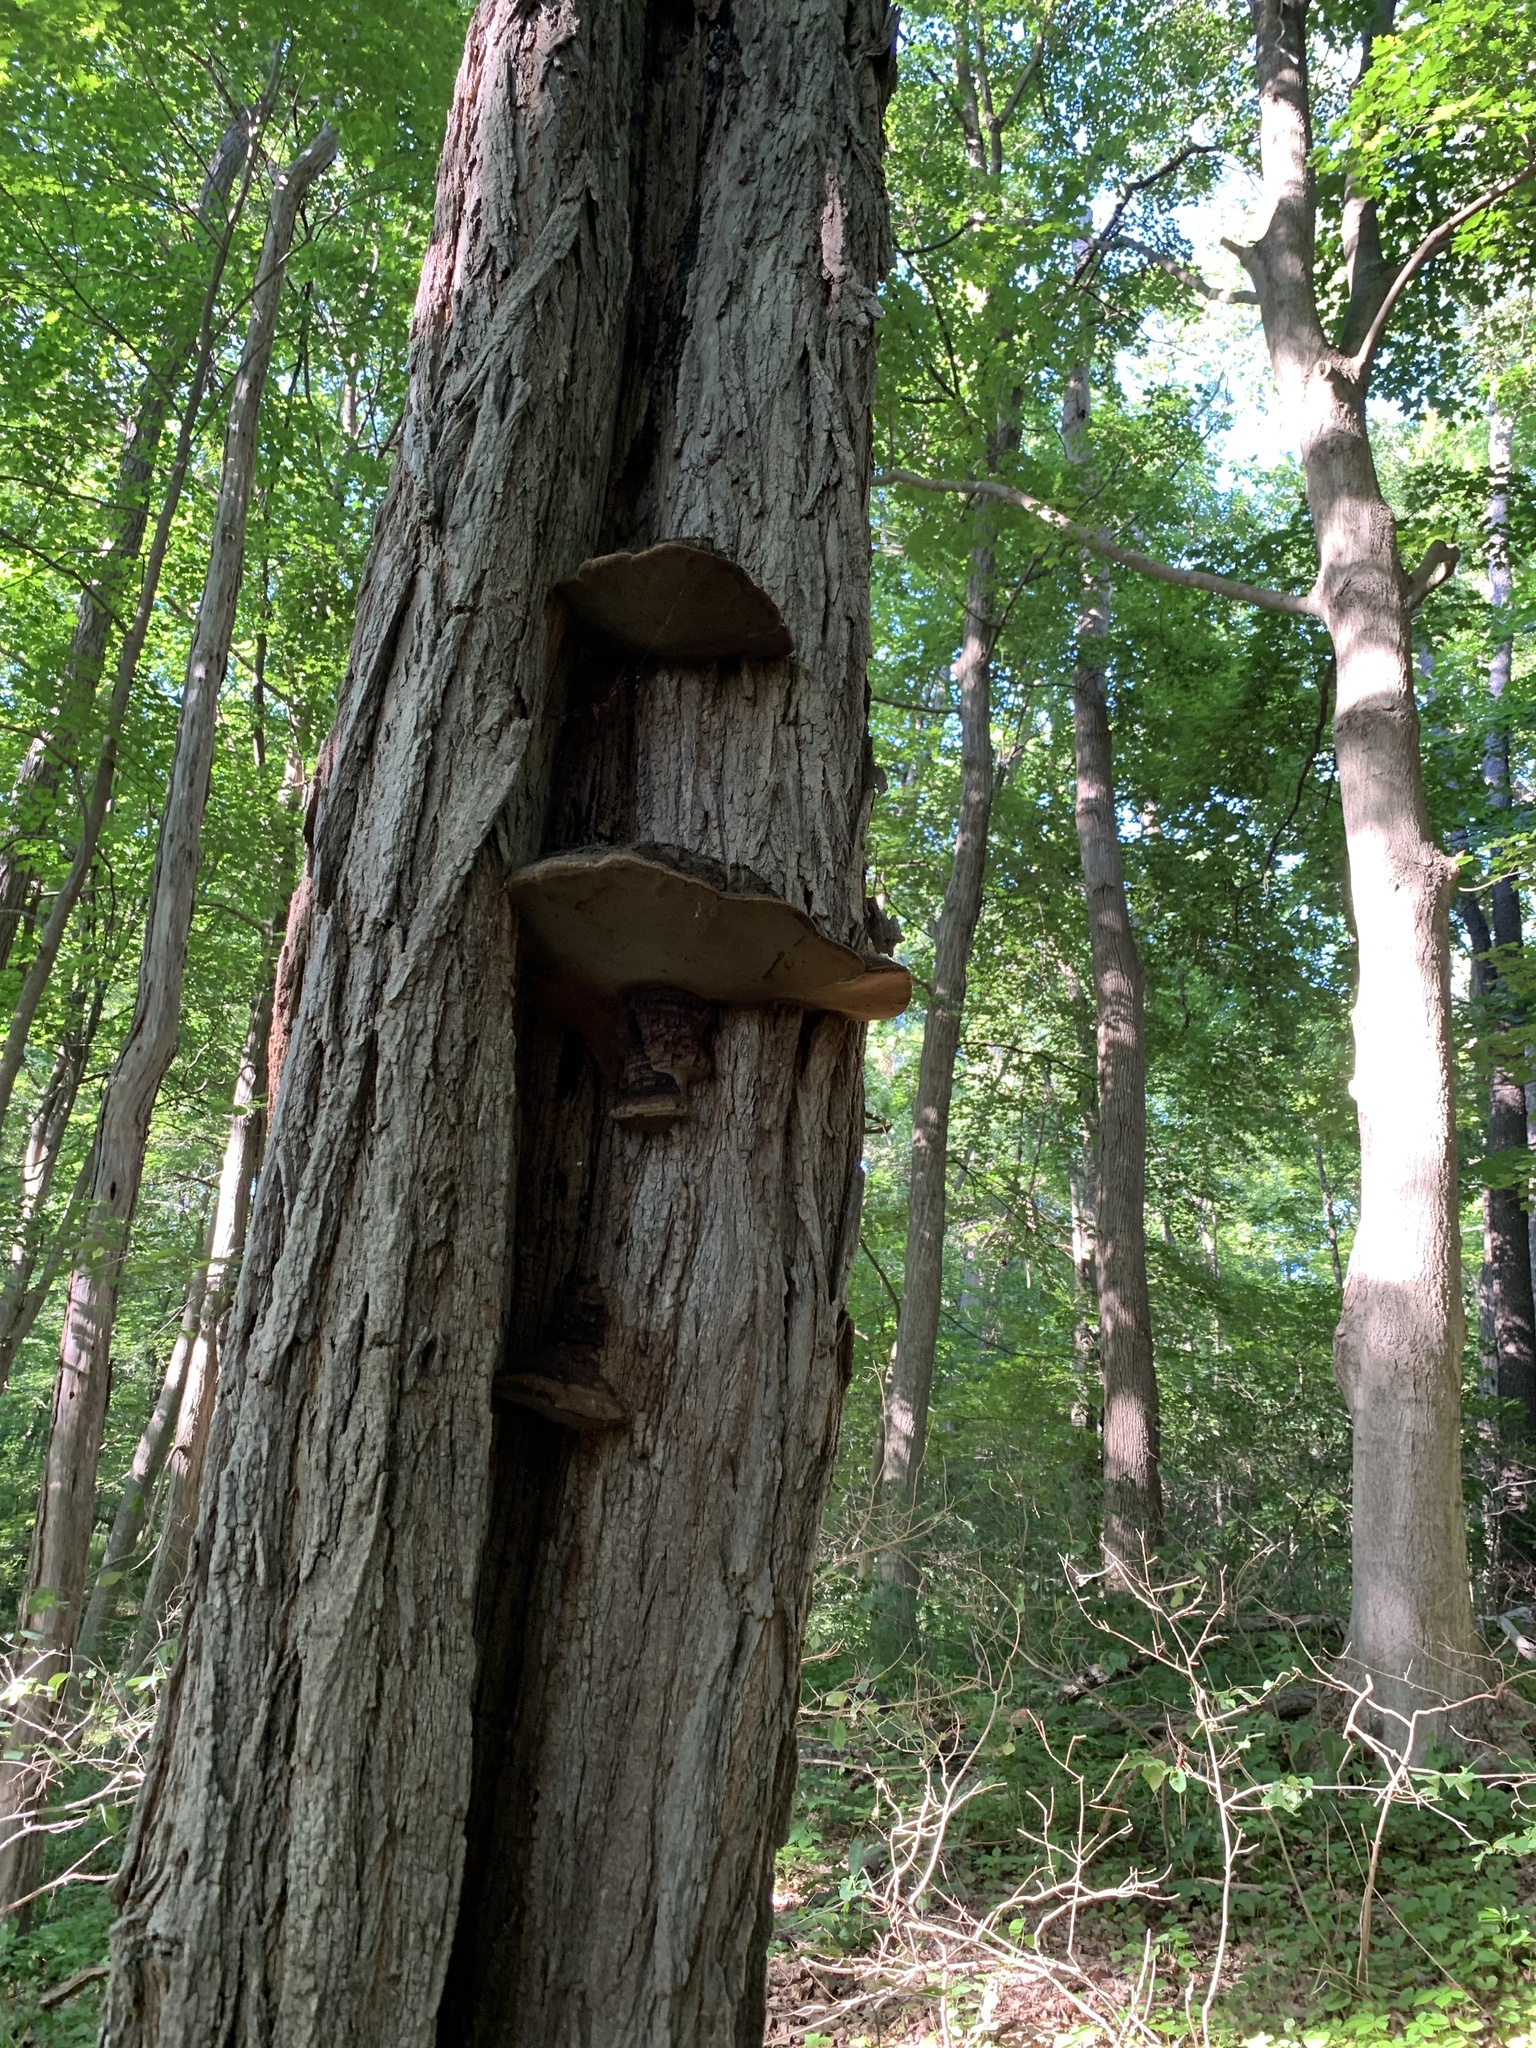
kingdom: Plantae
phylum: Tracheophyta
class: Magnoliopsida
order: Fabales
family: Fabaceae
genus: Robinia
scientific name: Robinia pseudoacacia
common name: Black locust
